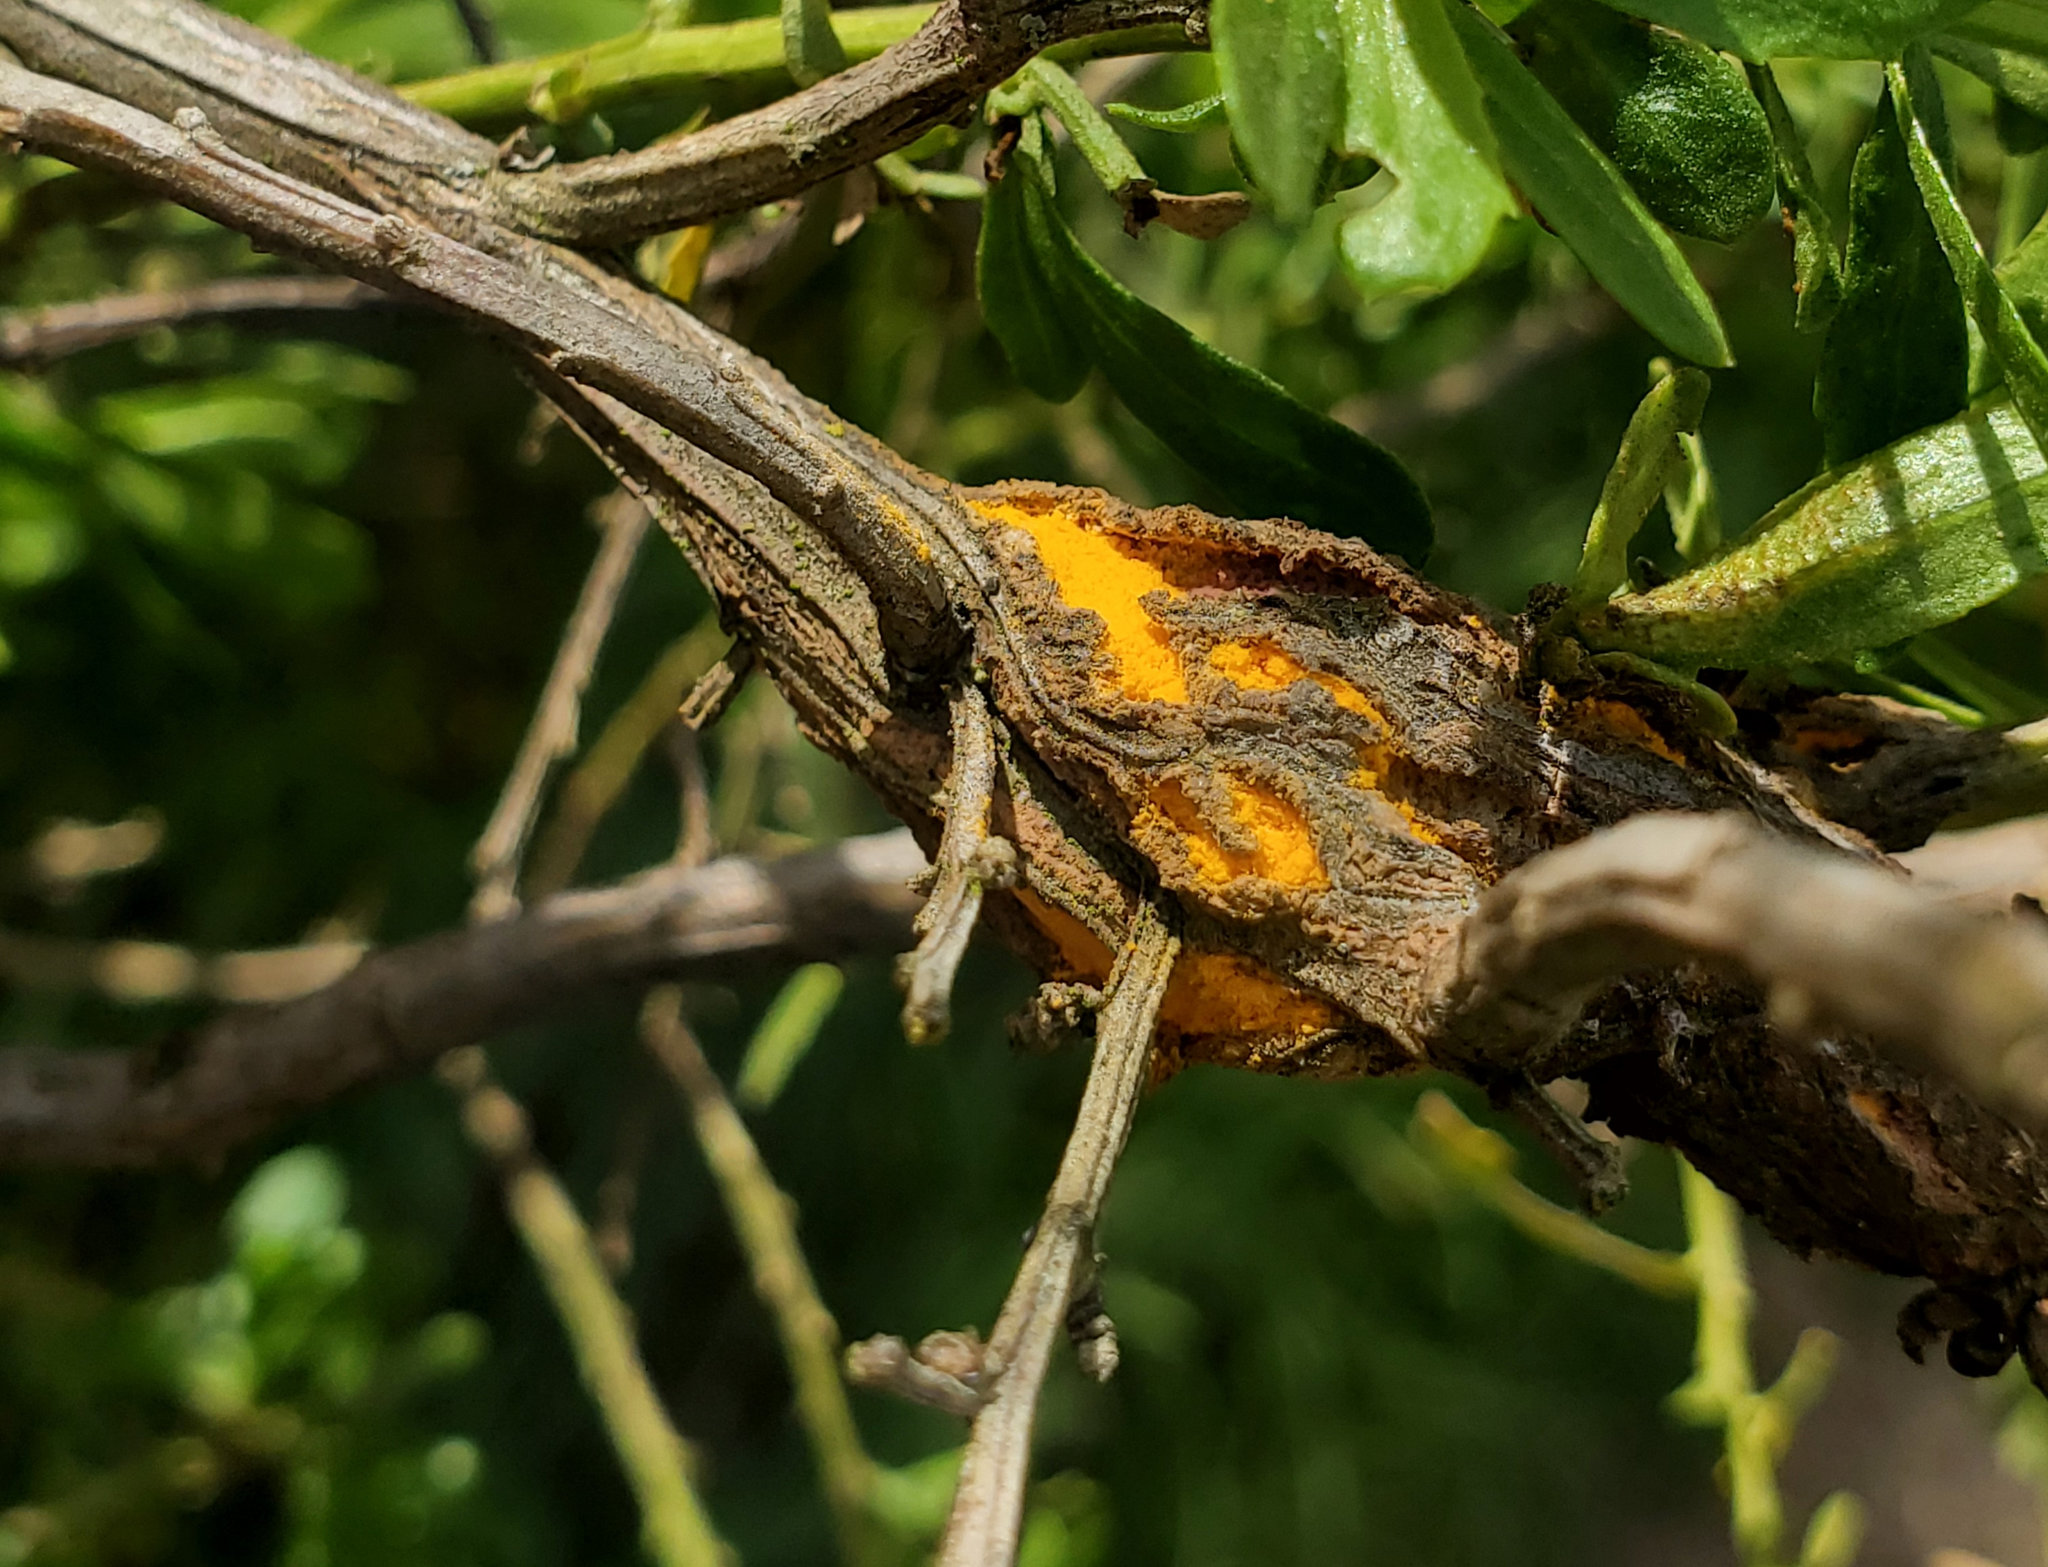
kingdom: Fungi
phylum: Basidiomycota
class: Pucciniomycetes
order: Pucciniales
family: Pucciniaceae
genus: Eriosporangium
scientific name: Eriosporangium evadens
